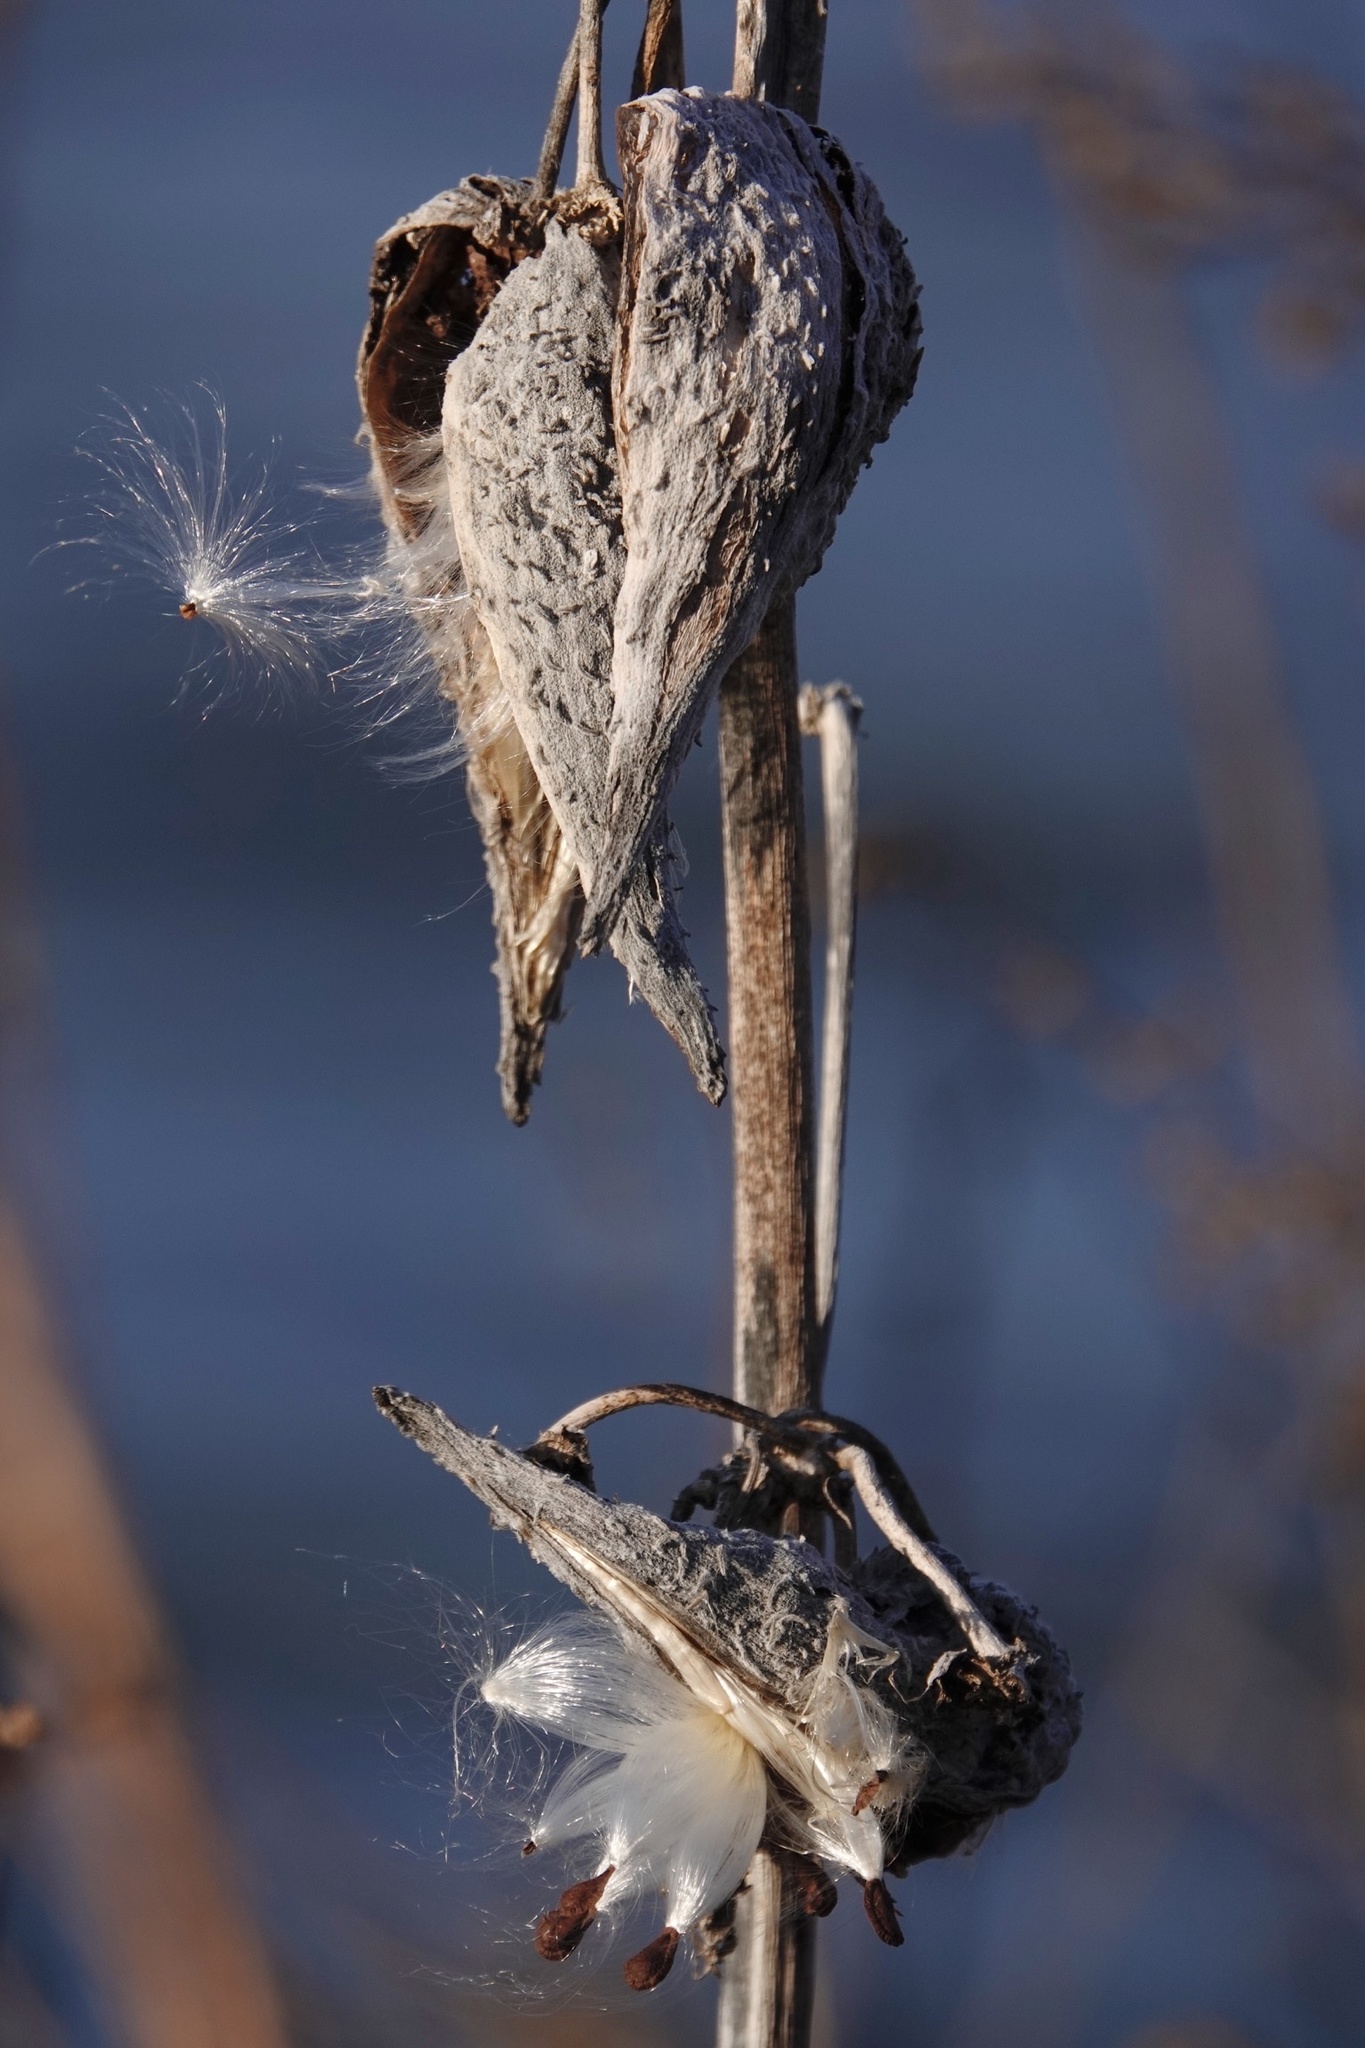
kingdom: Plantae
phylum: Tracheophyta
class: Magnoliopsida
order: Gentianales
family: Apocynaceae
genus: Asclepias
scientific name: Asclepias syriaca
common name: Common milkweed
